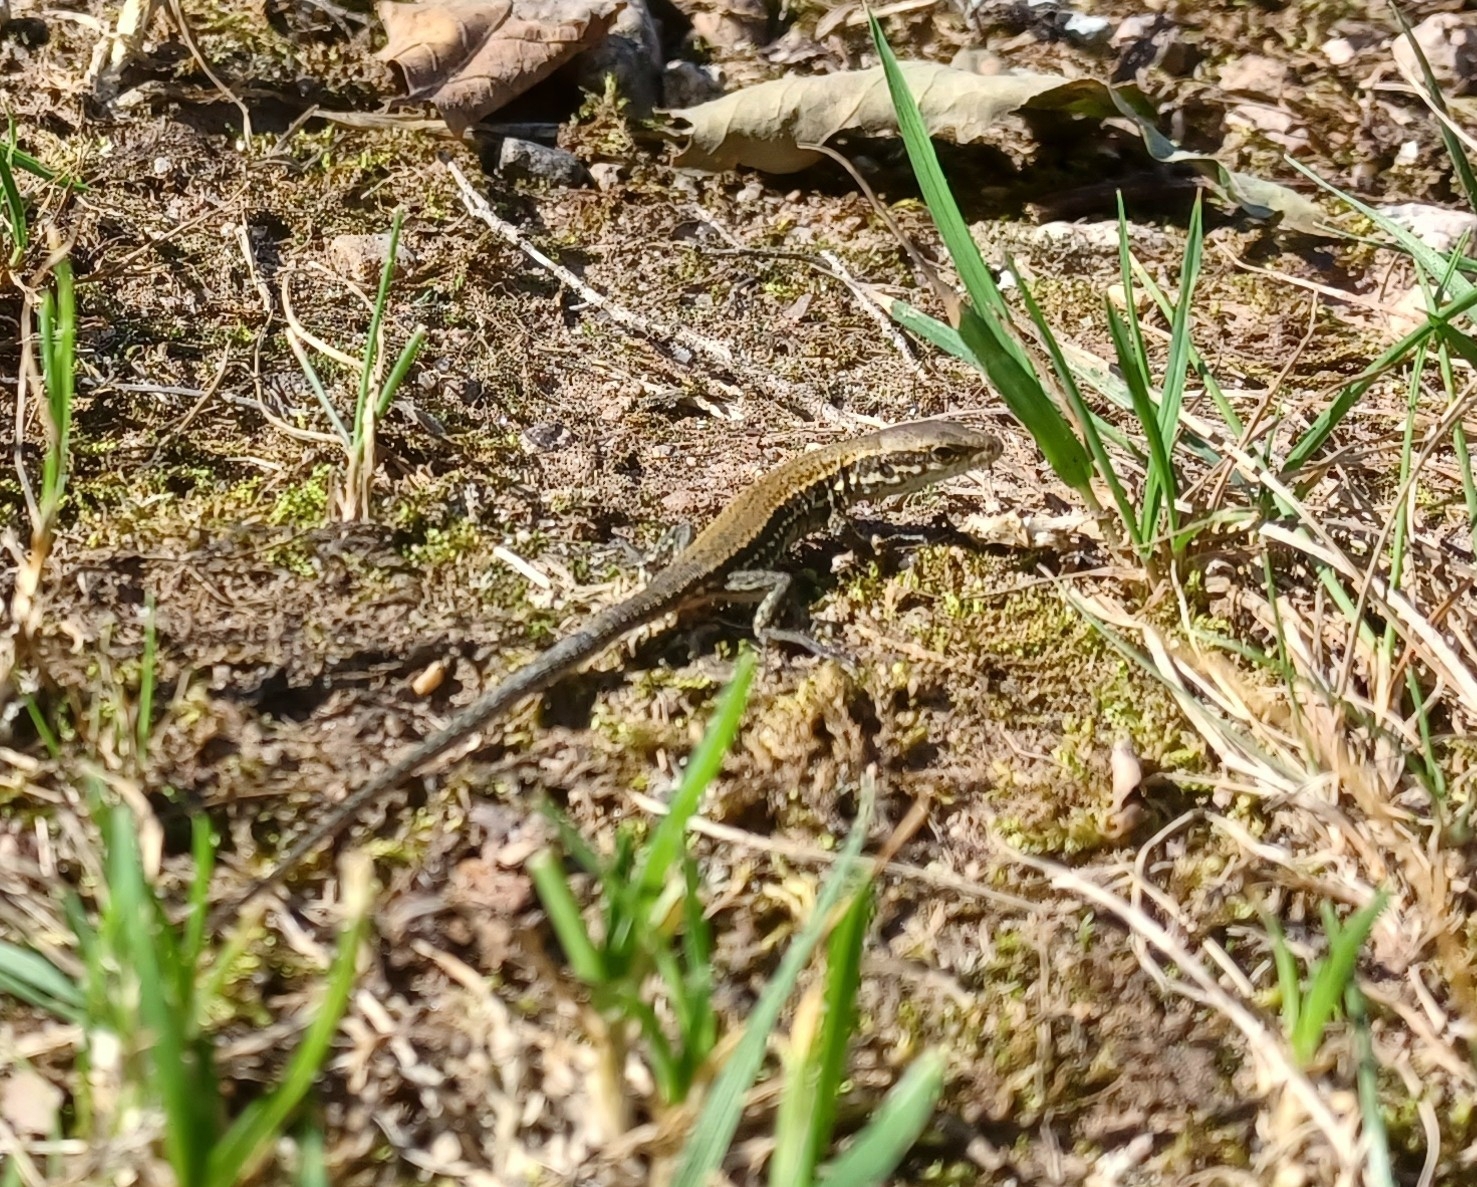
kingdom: Animalia
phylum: Chordata
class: Squamata
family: Lacertidae
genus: Podarcis
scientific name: Podarcis muralis
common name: Common wall lizard
